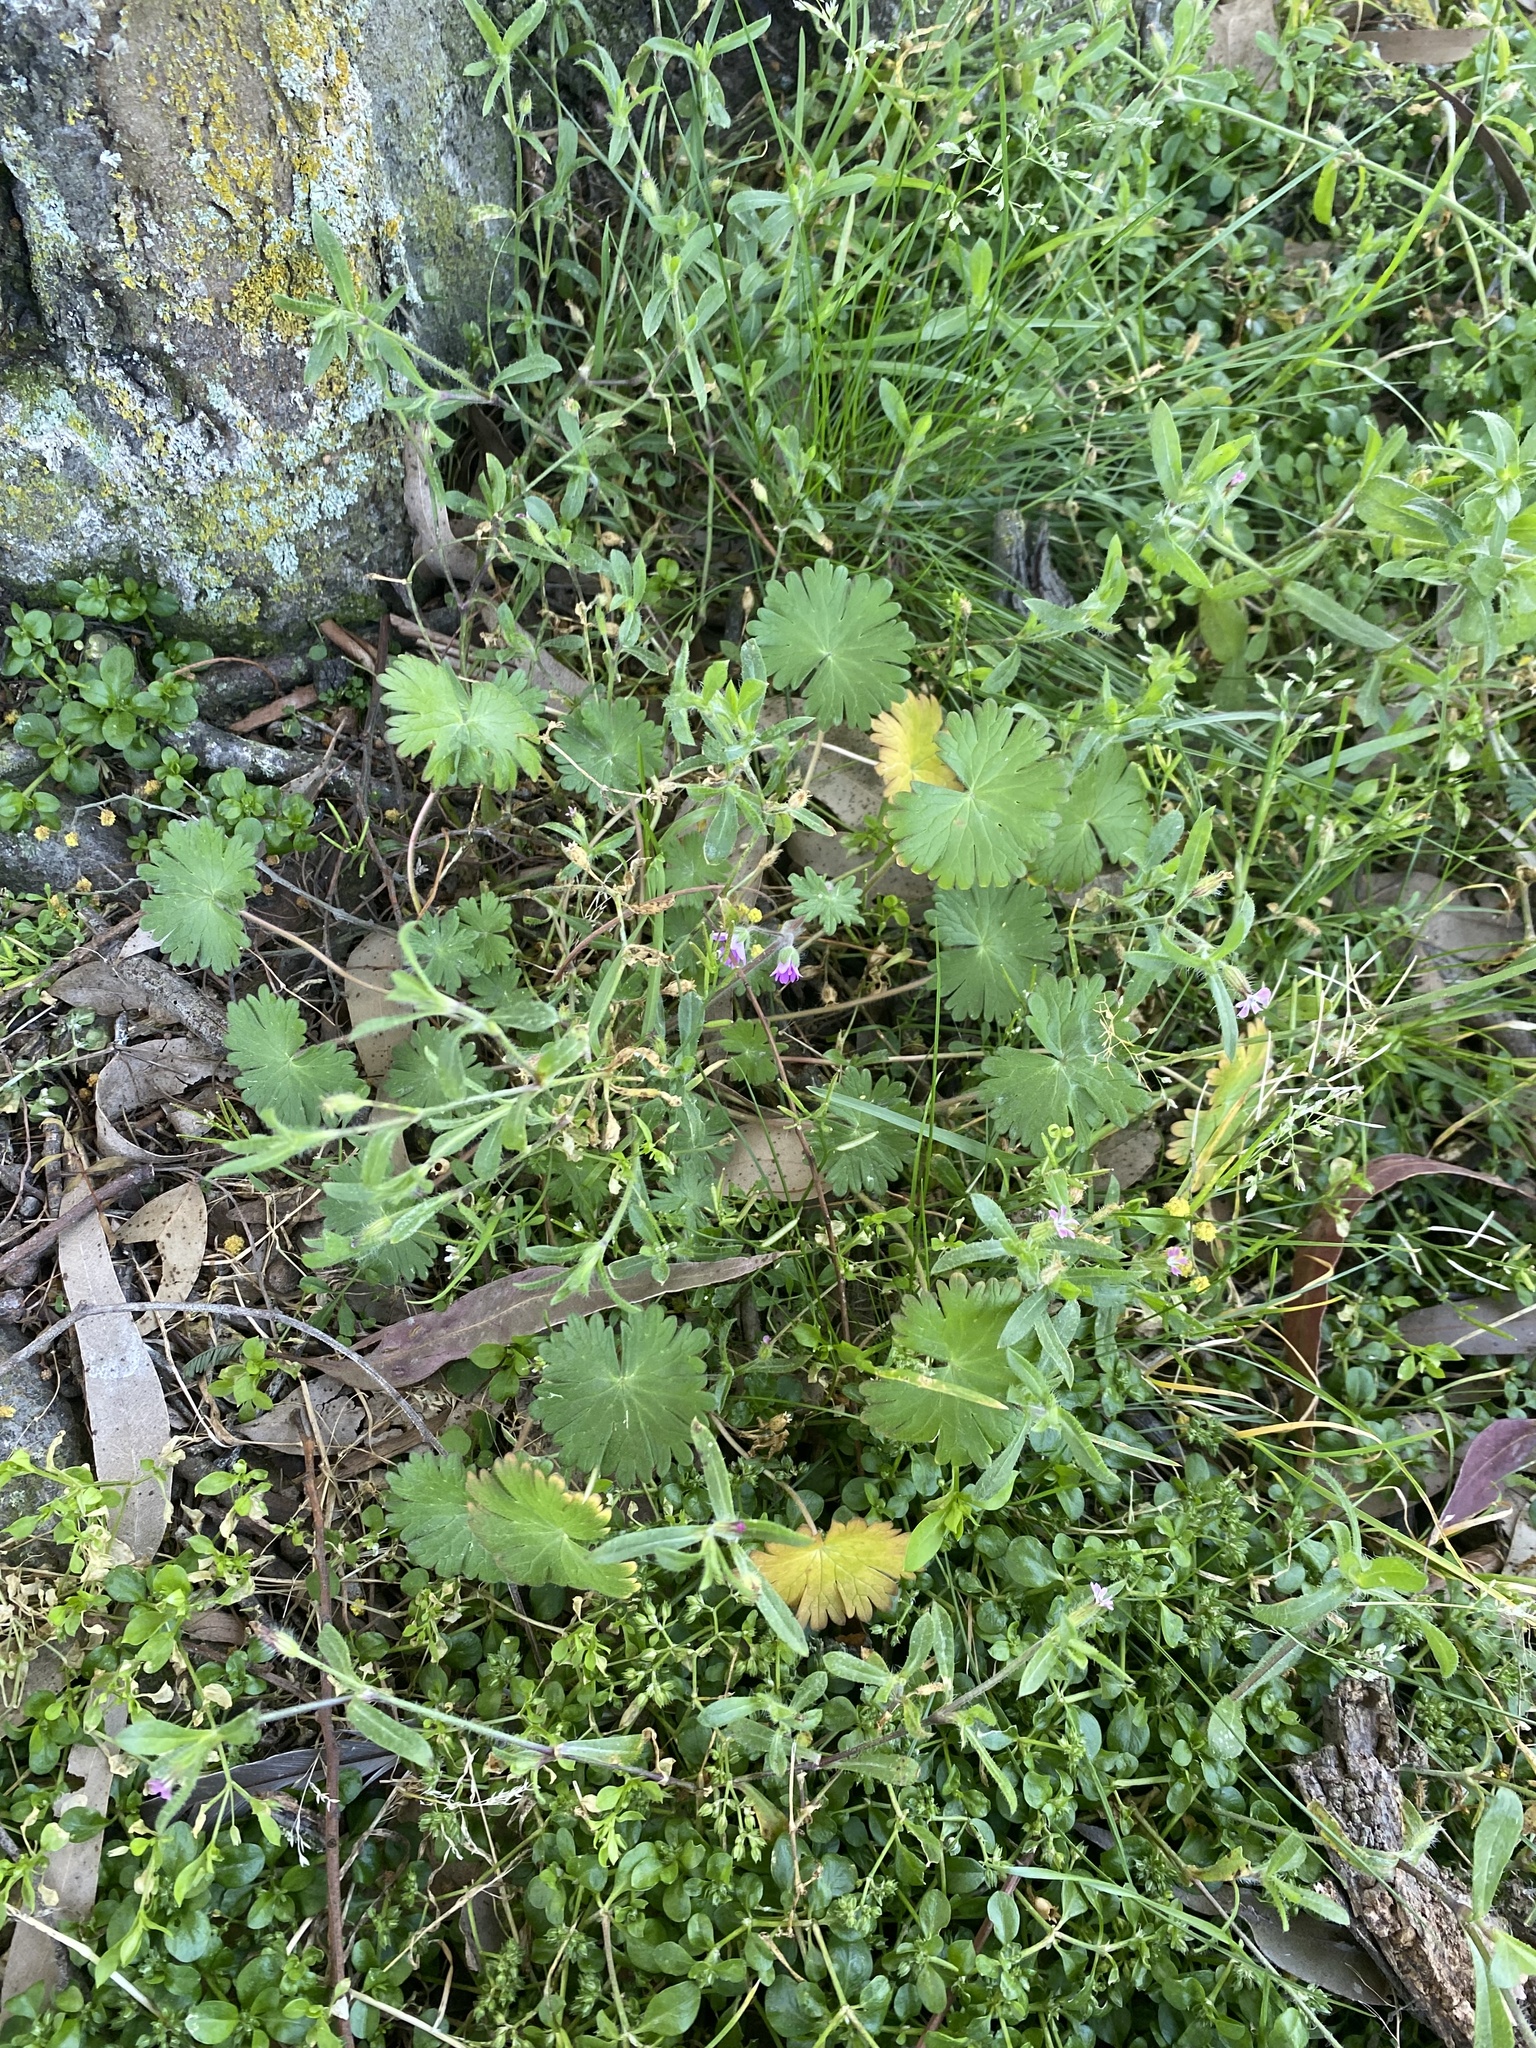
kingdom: Plantae
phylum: Tracheophyta
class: Magnoliopsida
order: Geraniales
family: Geraniaceae
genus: Geranium
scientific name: Geranium molle
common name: Dove's-foot crane's-bill
